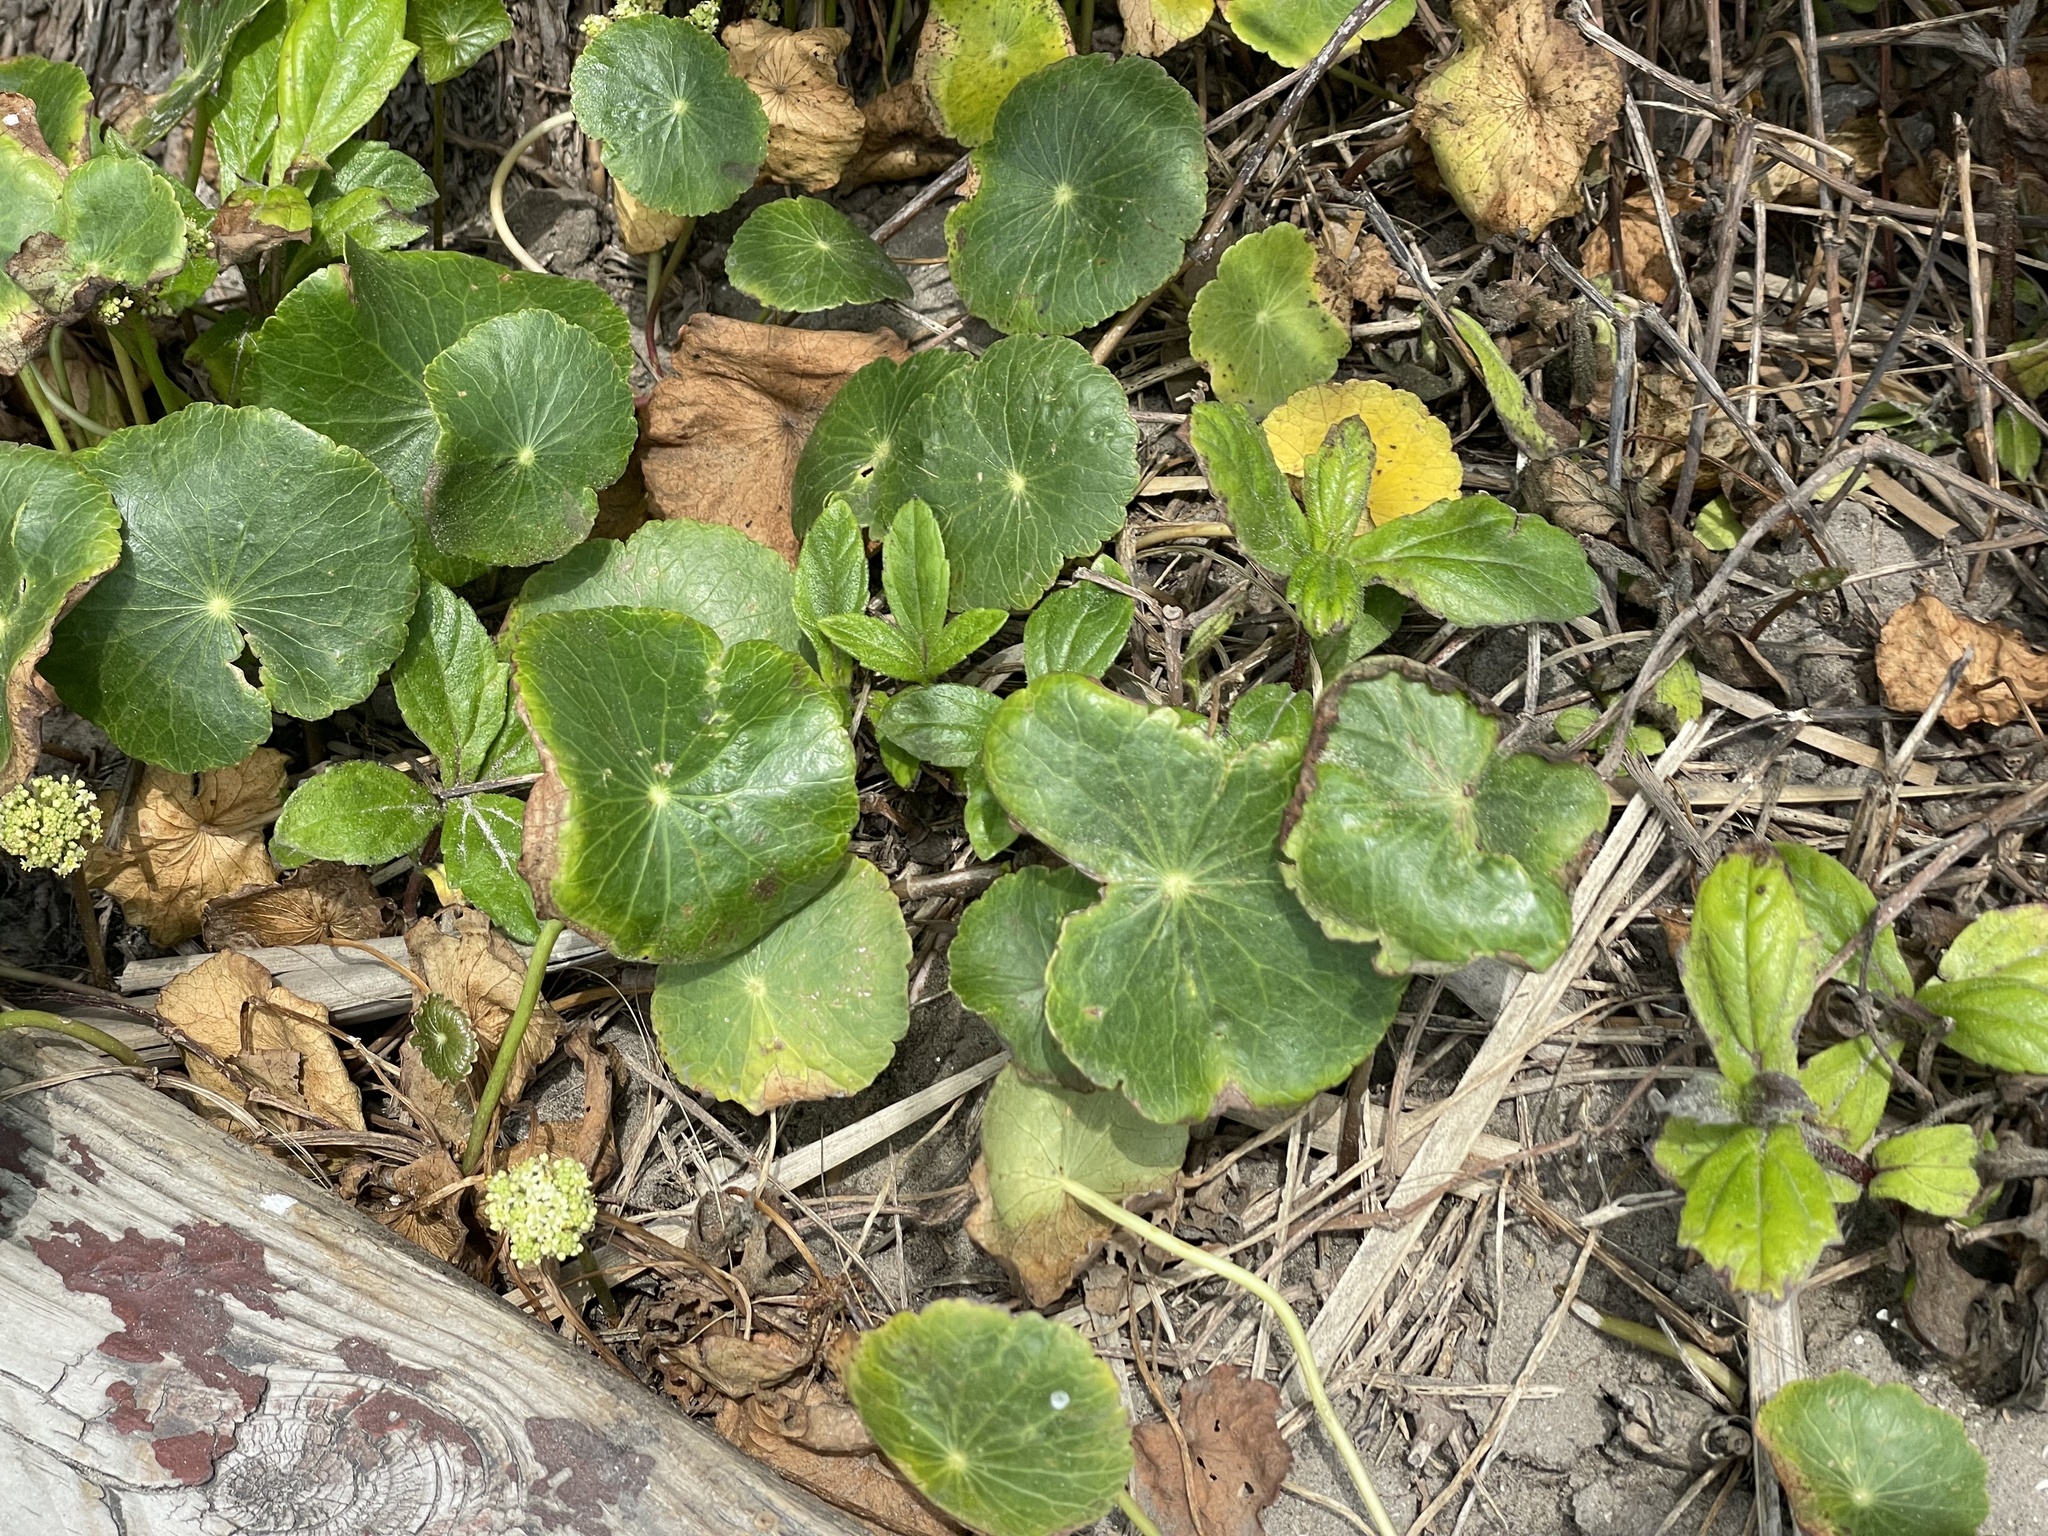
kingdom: Plantae
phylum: Tracheophyta
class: Magnoliopsida
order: Apiales
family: Araliaceae
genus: Hydrocotyle
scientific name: Hydrocotyle bonariensis
